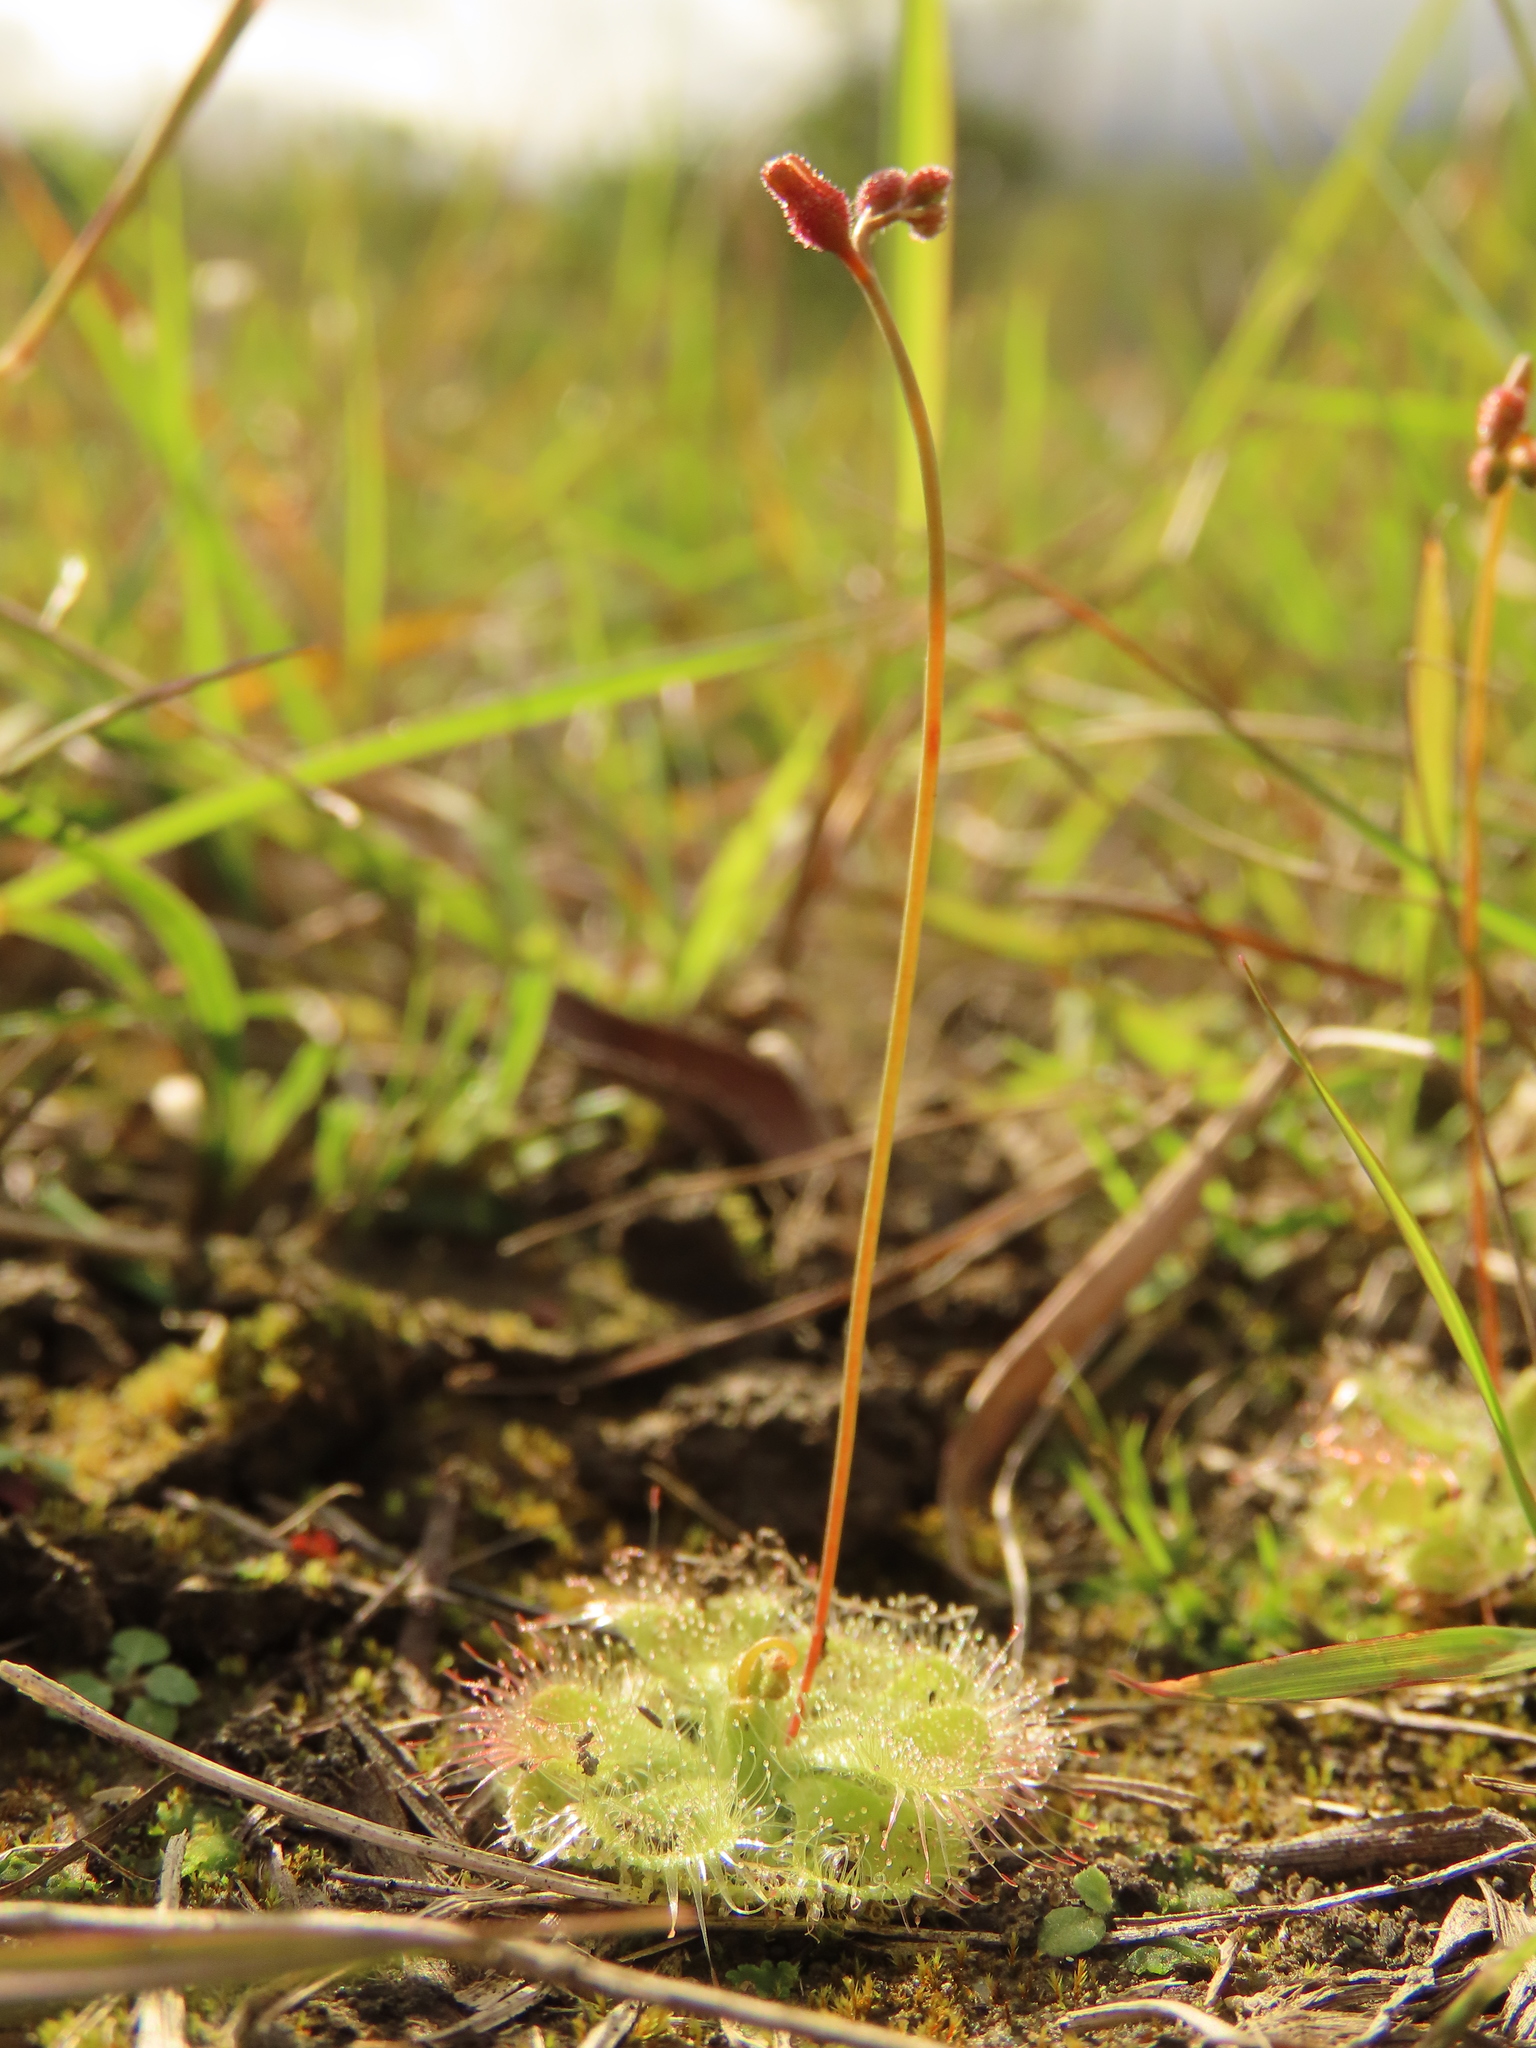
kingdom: Plantae
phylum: Tracheophyta
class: Magnoliopsida
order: Caryophyllales
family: Droseraceae
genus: Drosera
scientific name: Drosera spatulata
